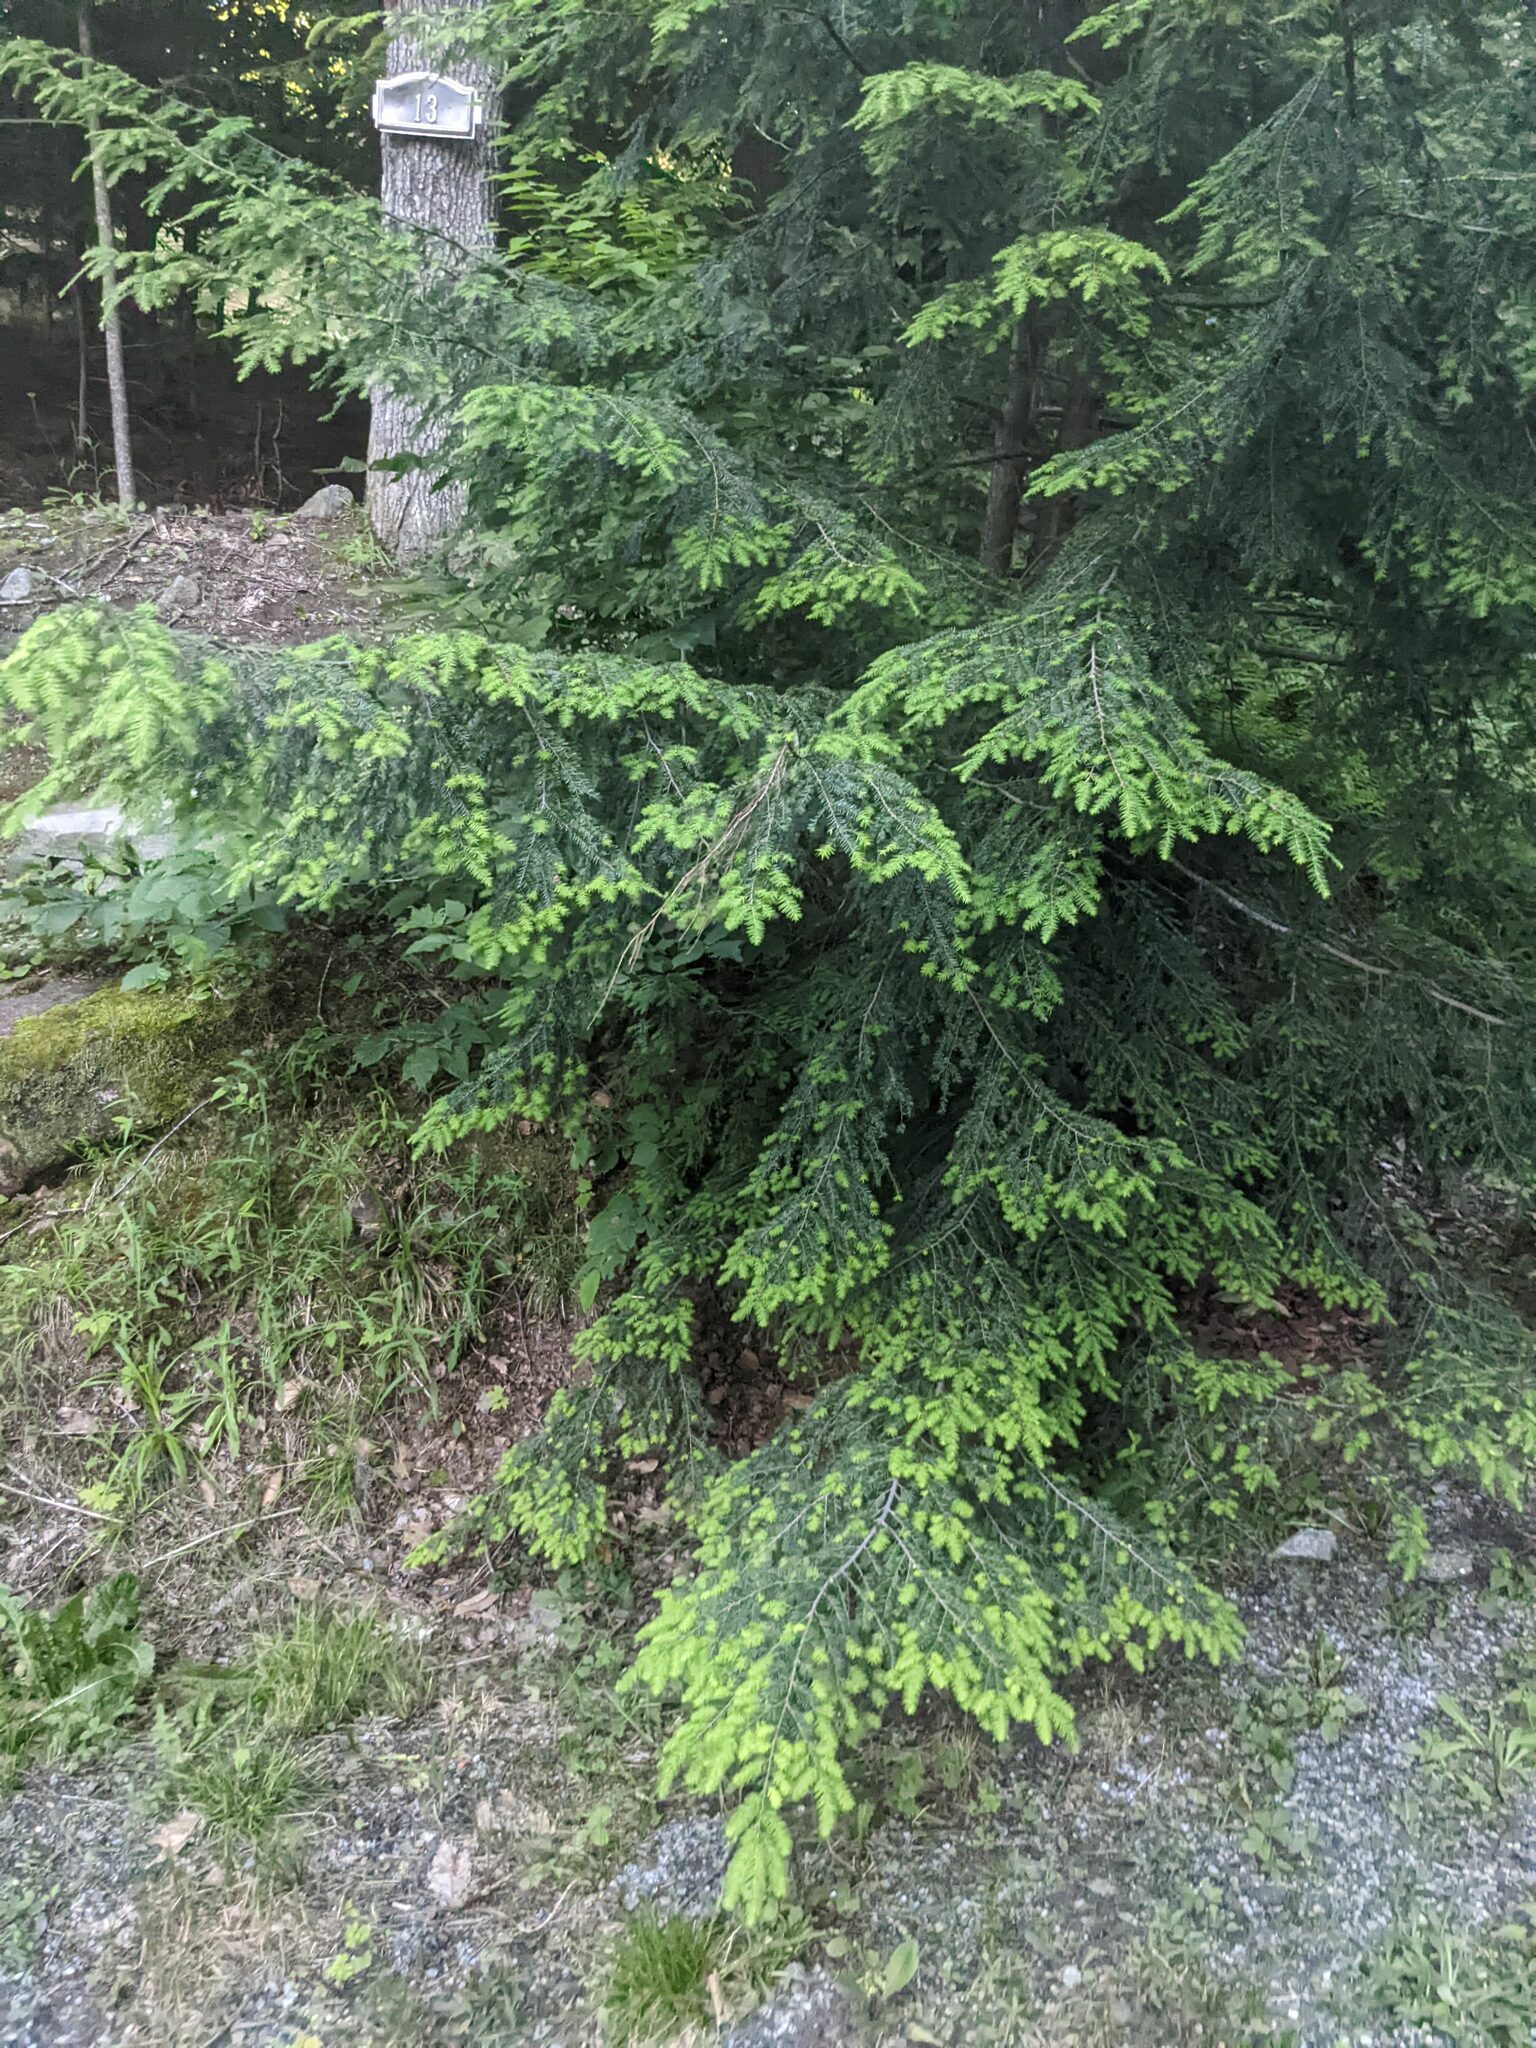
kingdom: Plantae
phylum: Tracheophyta
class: Pinopsida
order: Pinales
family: Pinaceae
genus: Tsuga
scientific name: Tsuga canadensis
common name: Eastern hemlock
